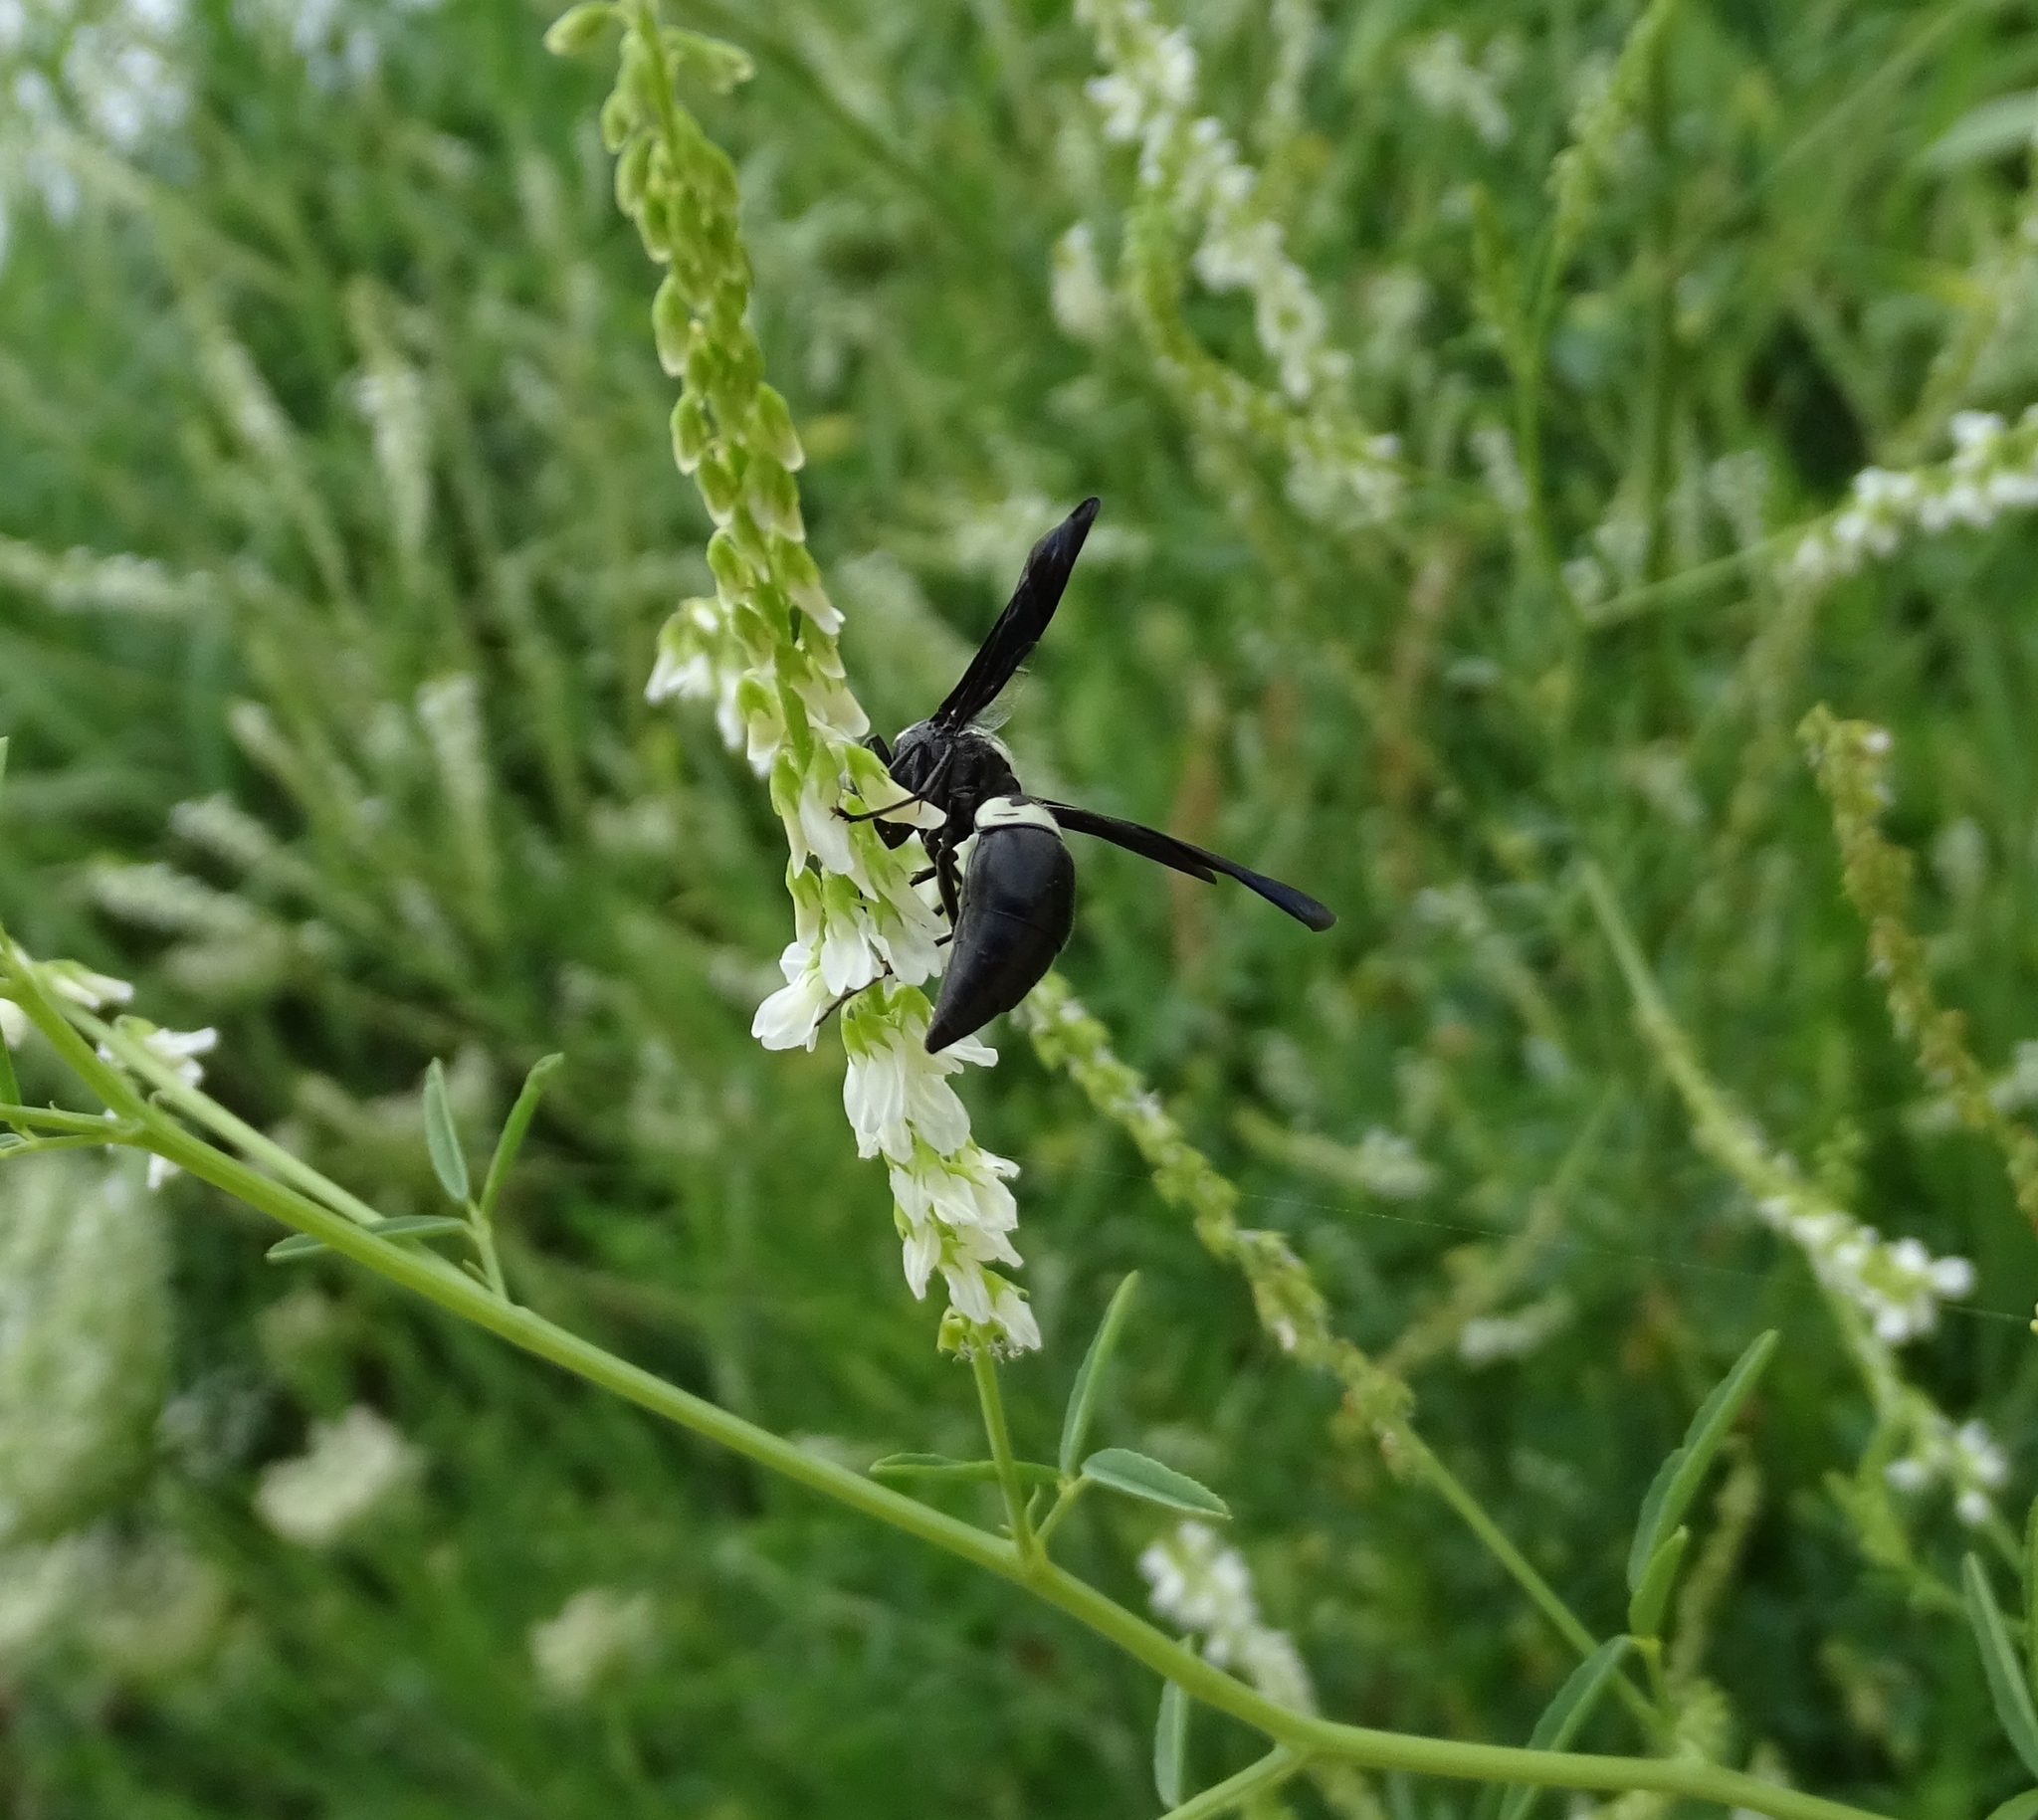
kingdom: Animalia
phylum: Arthropoda
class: Insecta
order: Hymenoptera
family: Eumenidae
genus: Monobia
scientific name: Monobia quadridens
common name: Four-toothed mason wasp
